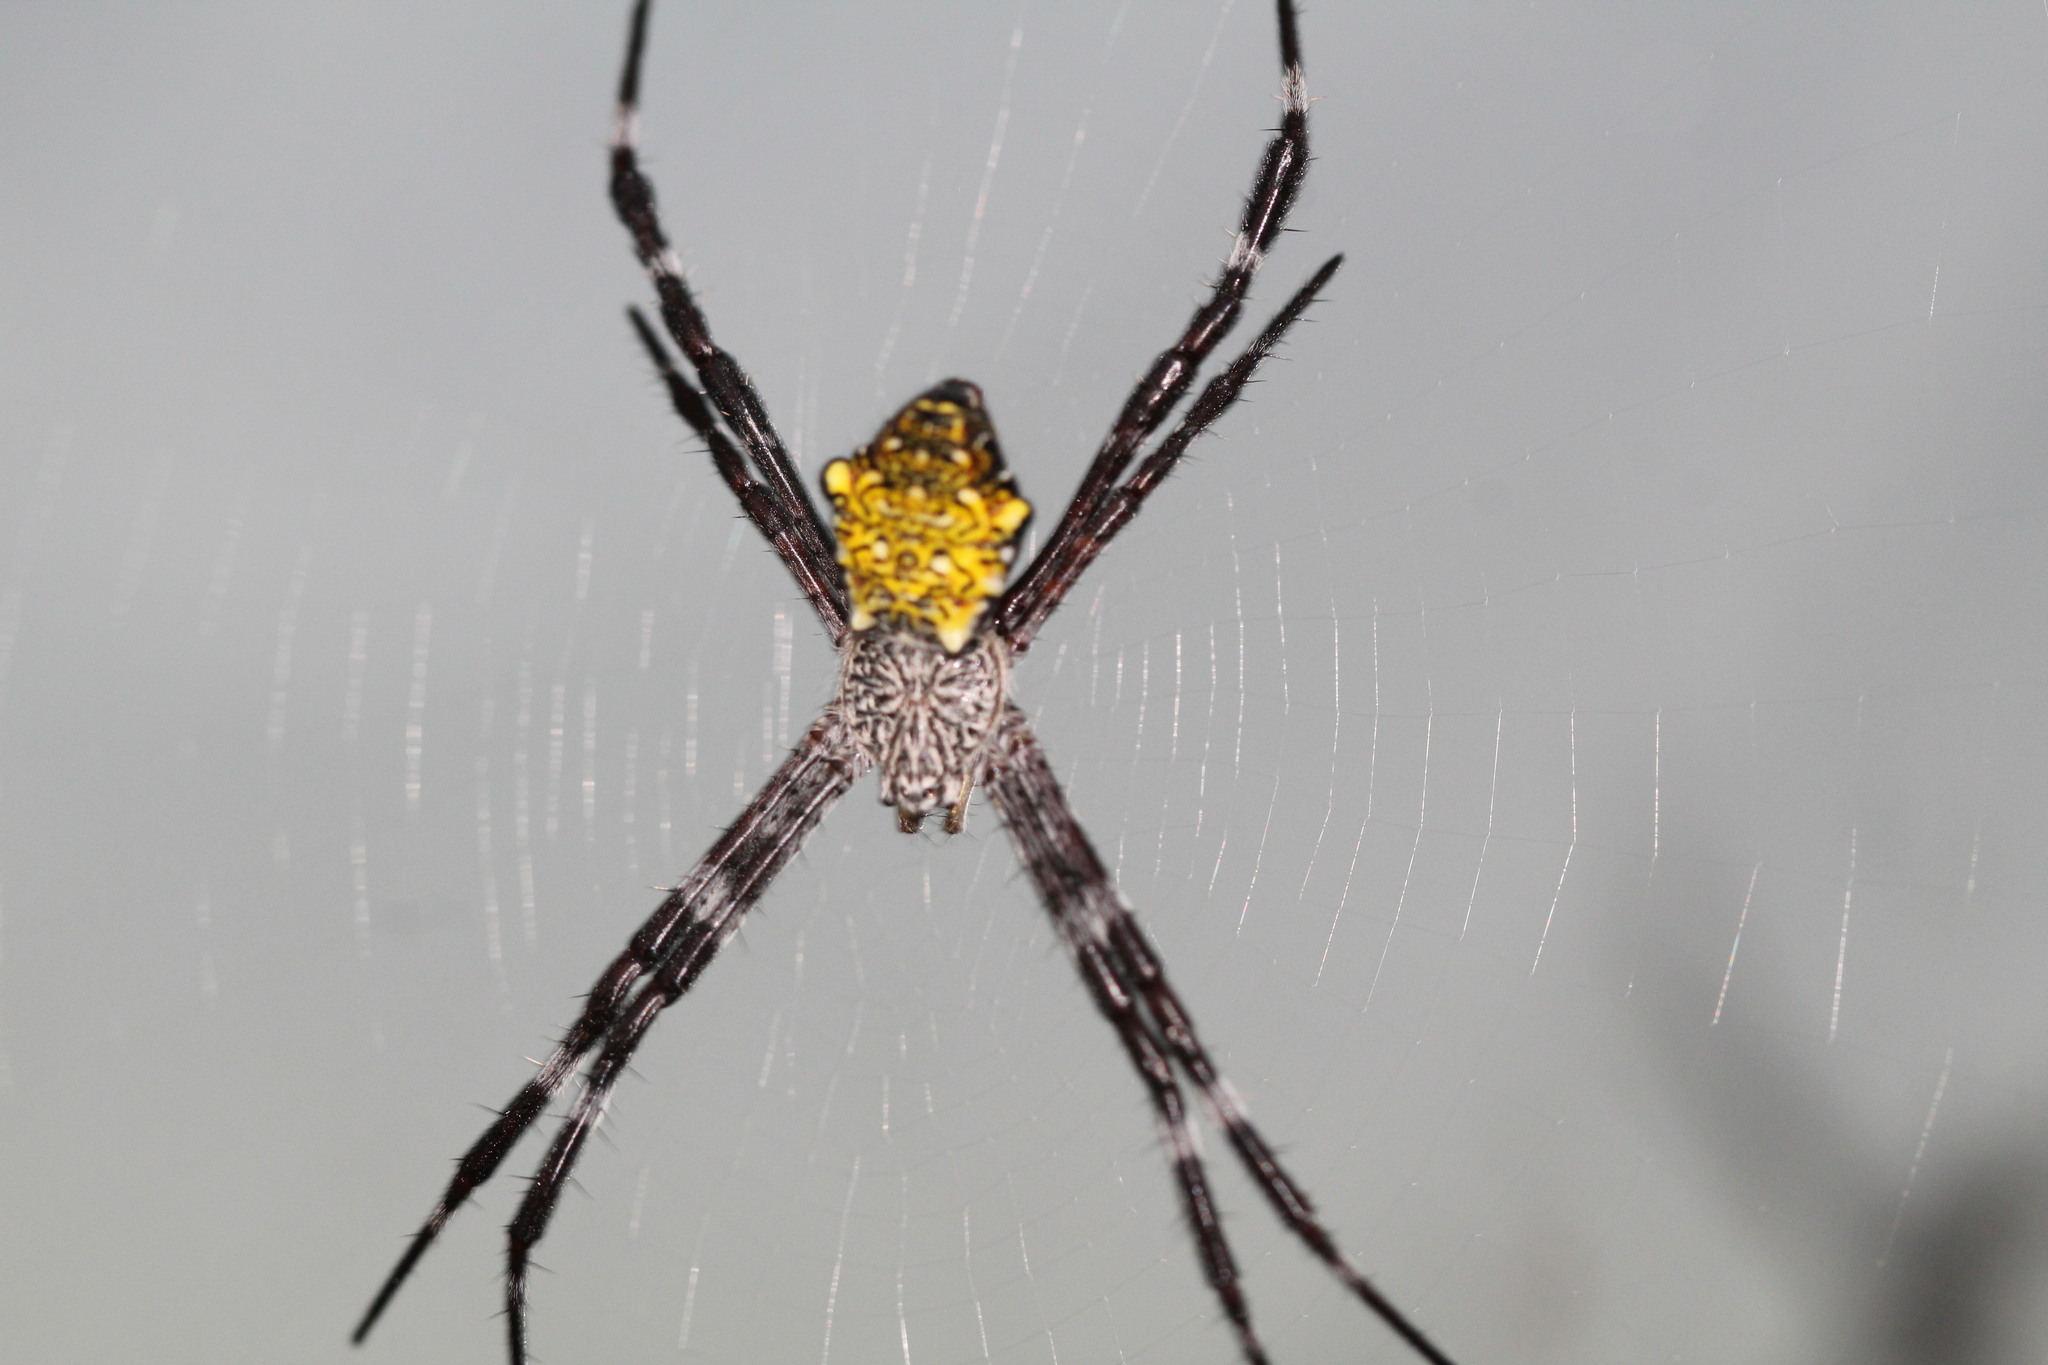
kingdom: Animalia
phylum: Arthropoda
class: Arachnida
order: Araneae
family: Araneidae
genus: Argiope
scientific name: Argiope appensa
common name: Garden spider
